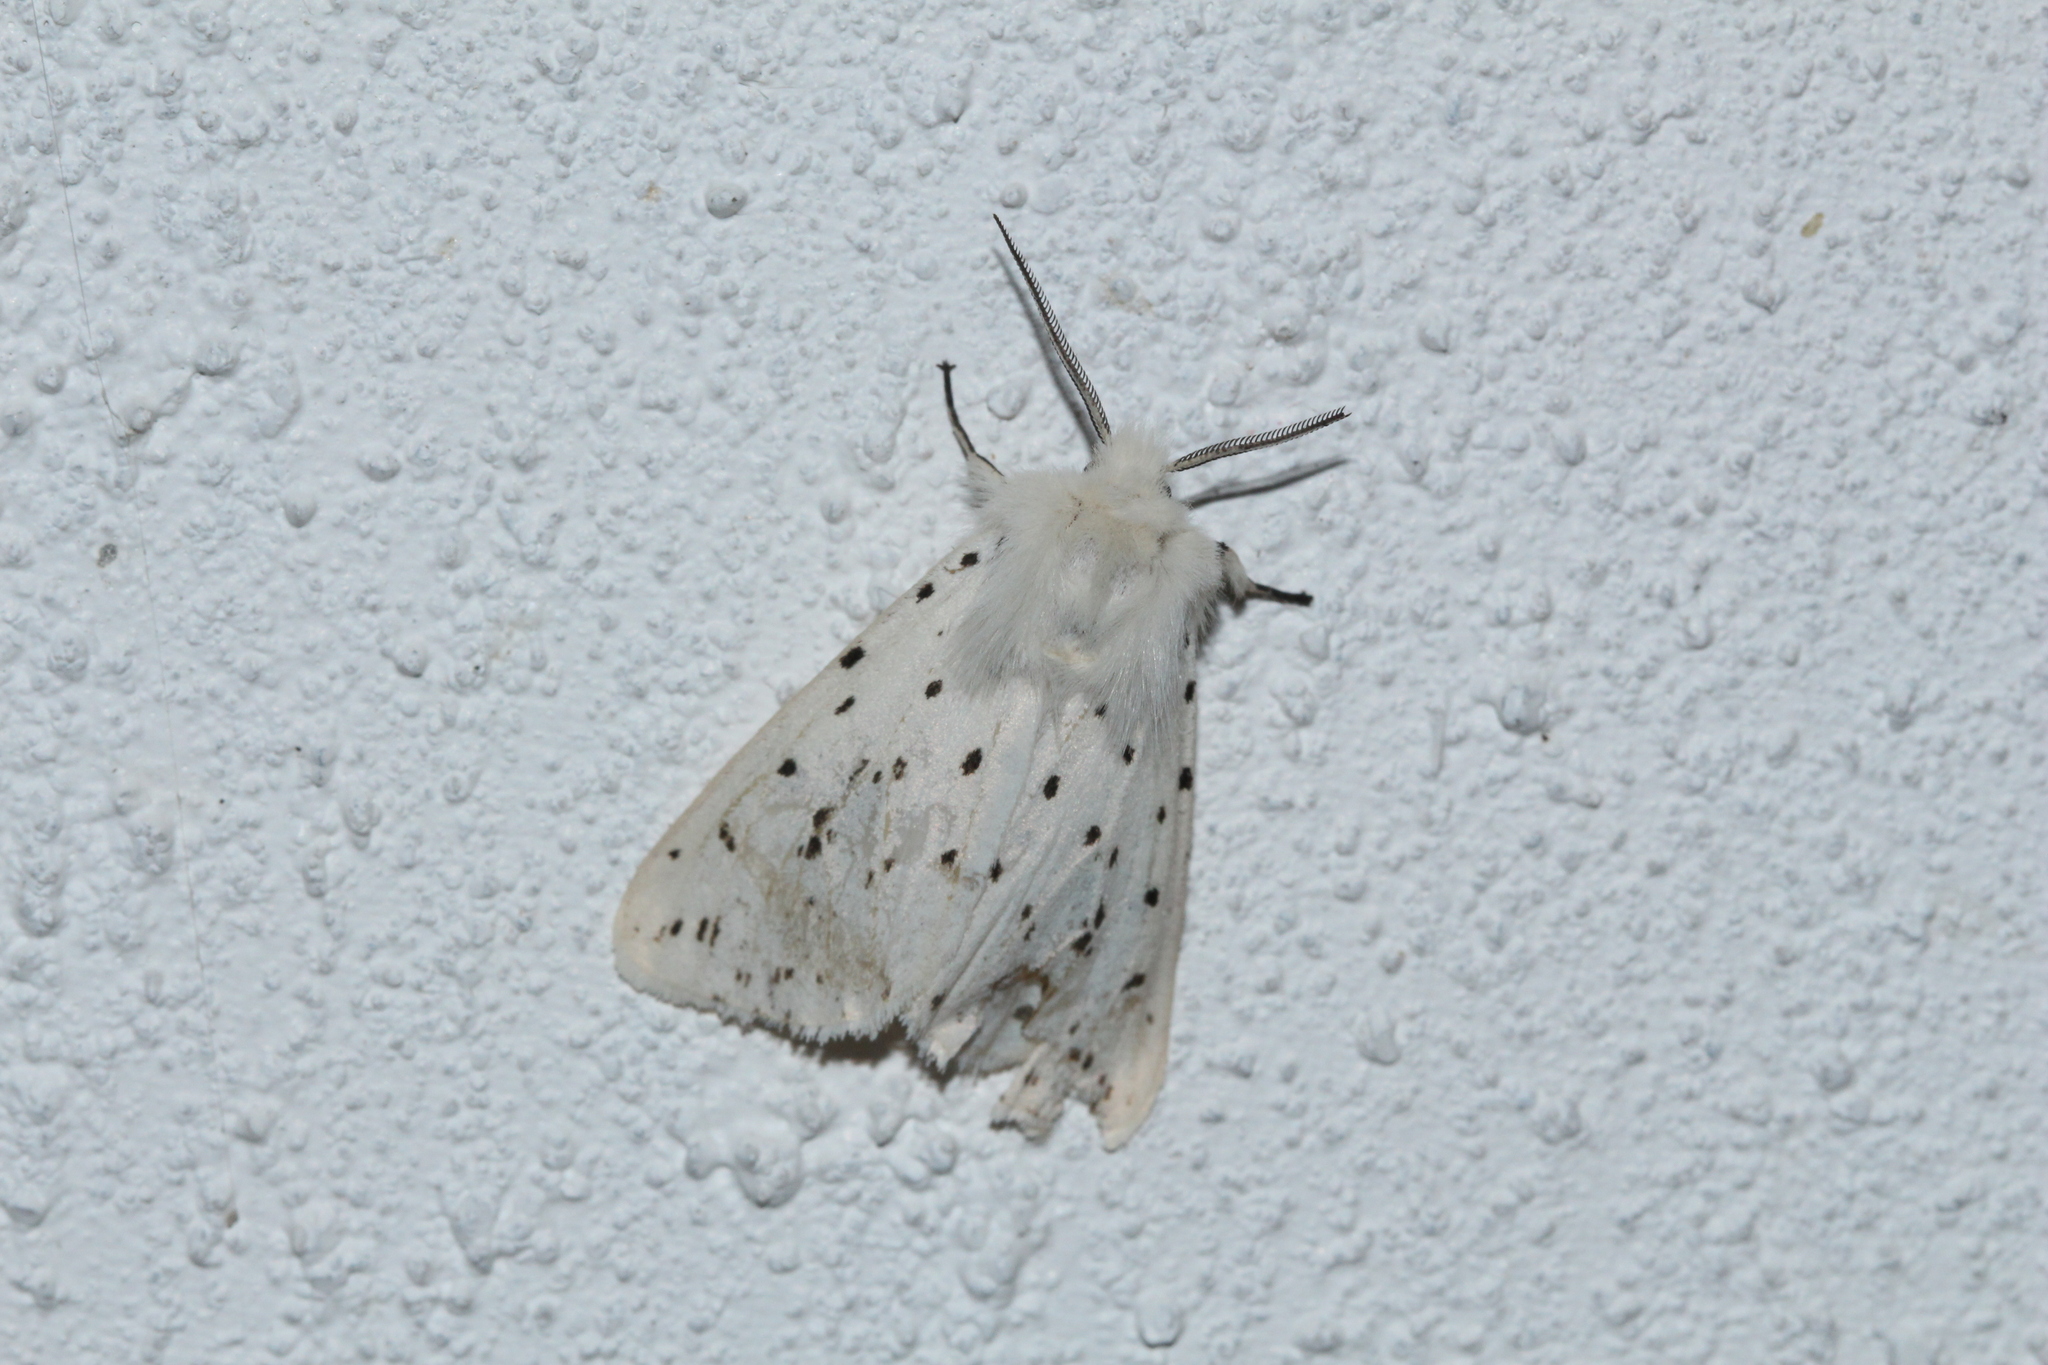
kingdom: Animalia
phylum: Arthropoda
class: Insecta
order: Lepidoptera
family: Erebidae
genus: Spilosoma
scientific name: Spilosoma lubricipeda
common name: White ermine
